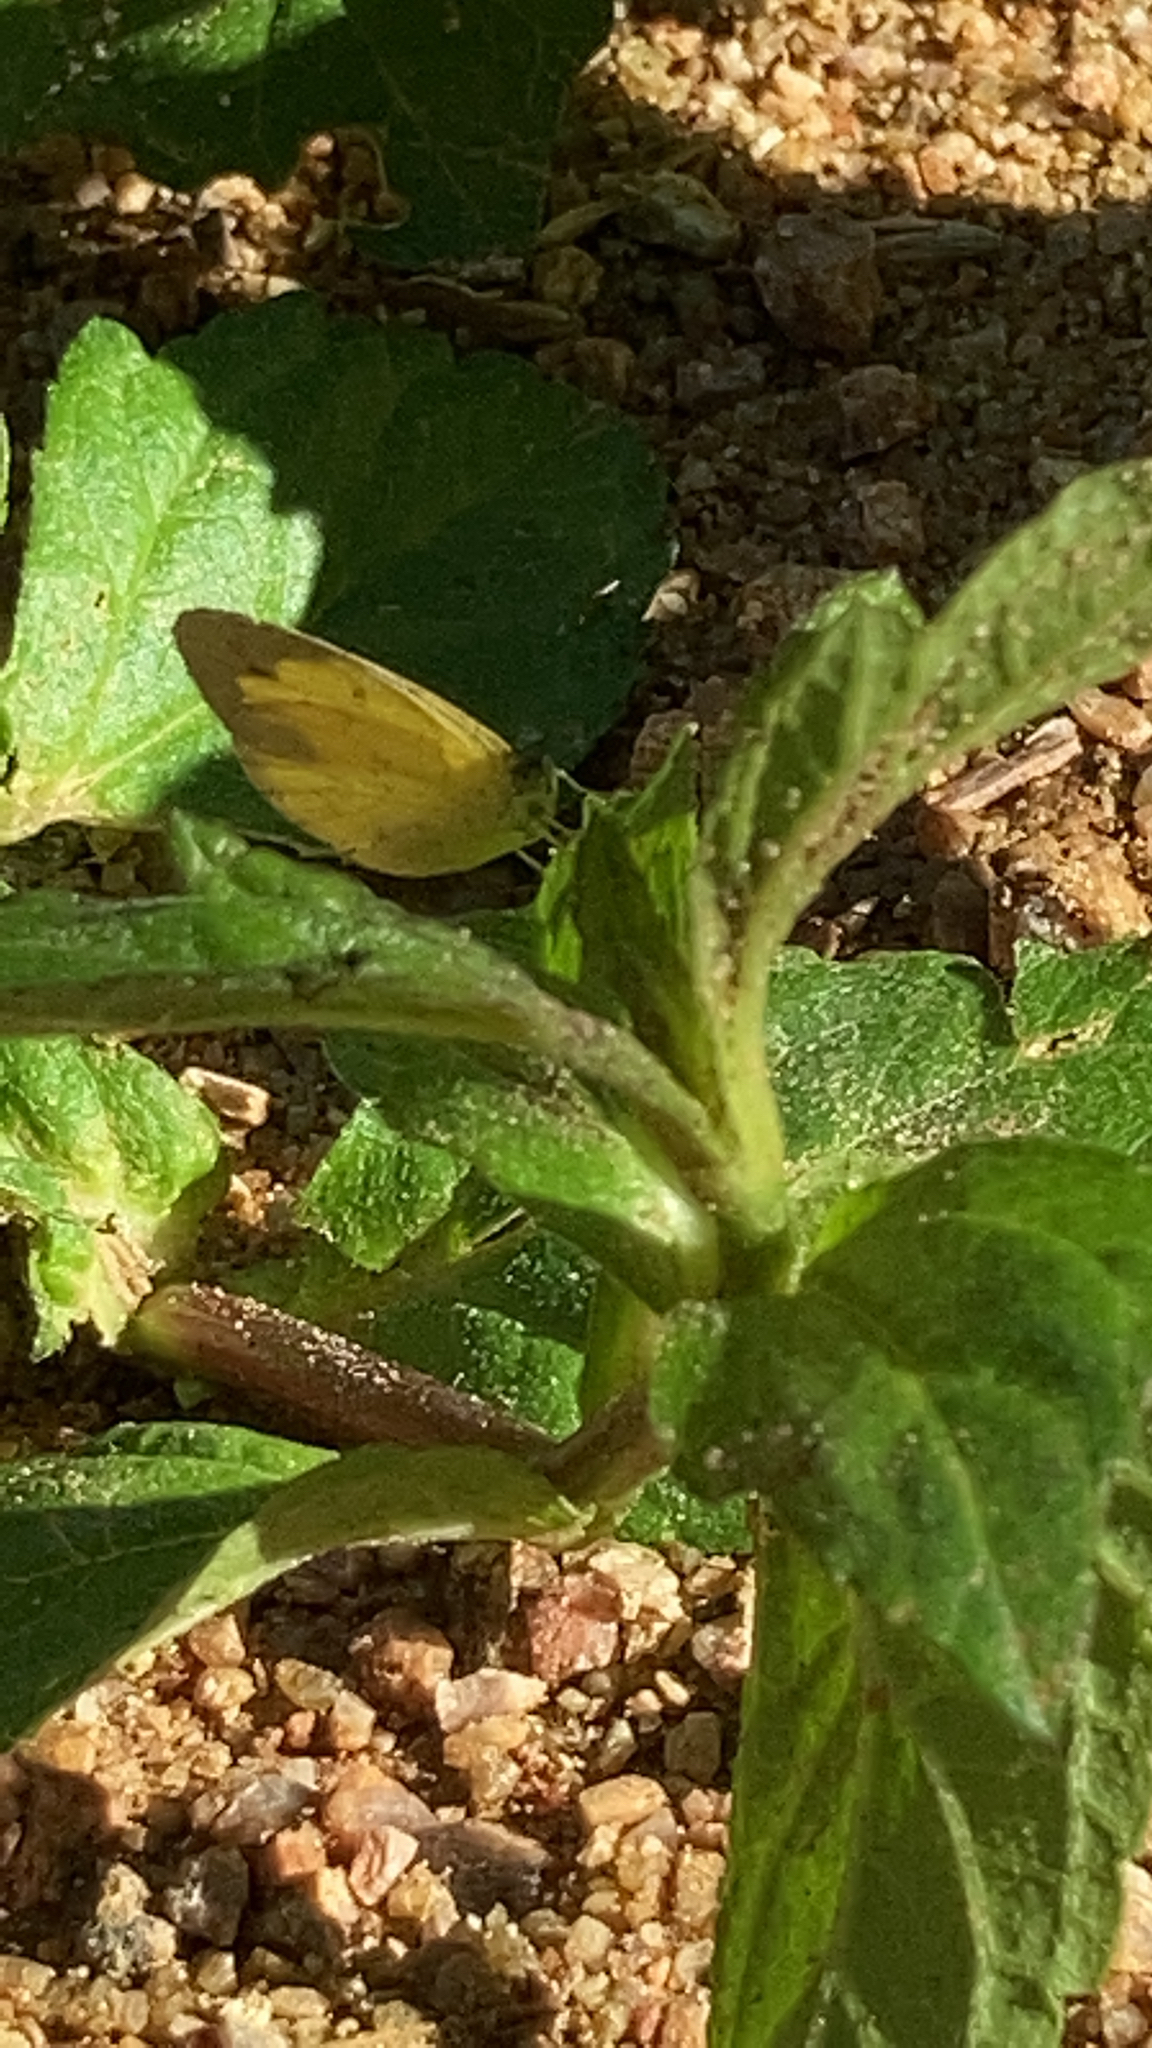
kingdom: Animalia
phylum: Arthropoda
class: Insecta
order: Lepidoptera
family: Pieridae
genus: Eurema
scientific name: Eurema brigitta
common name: Small grass yellow
